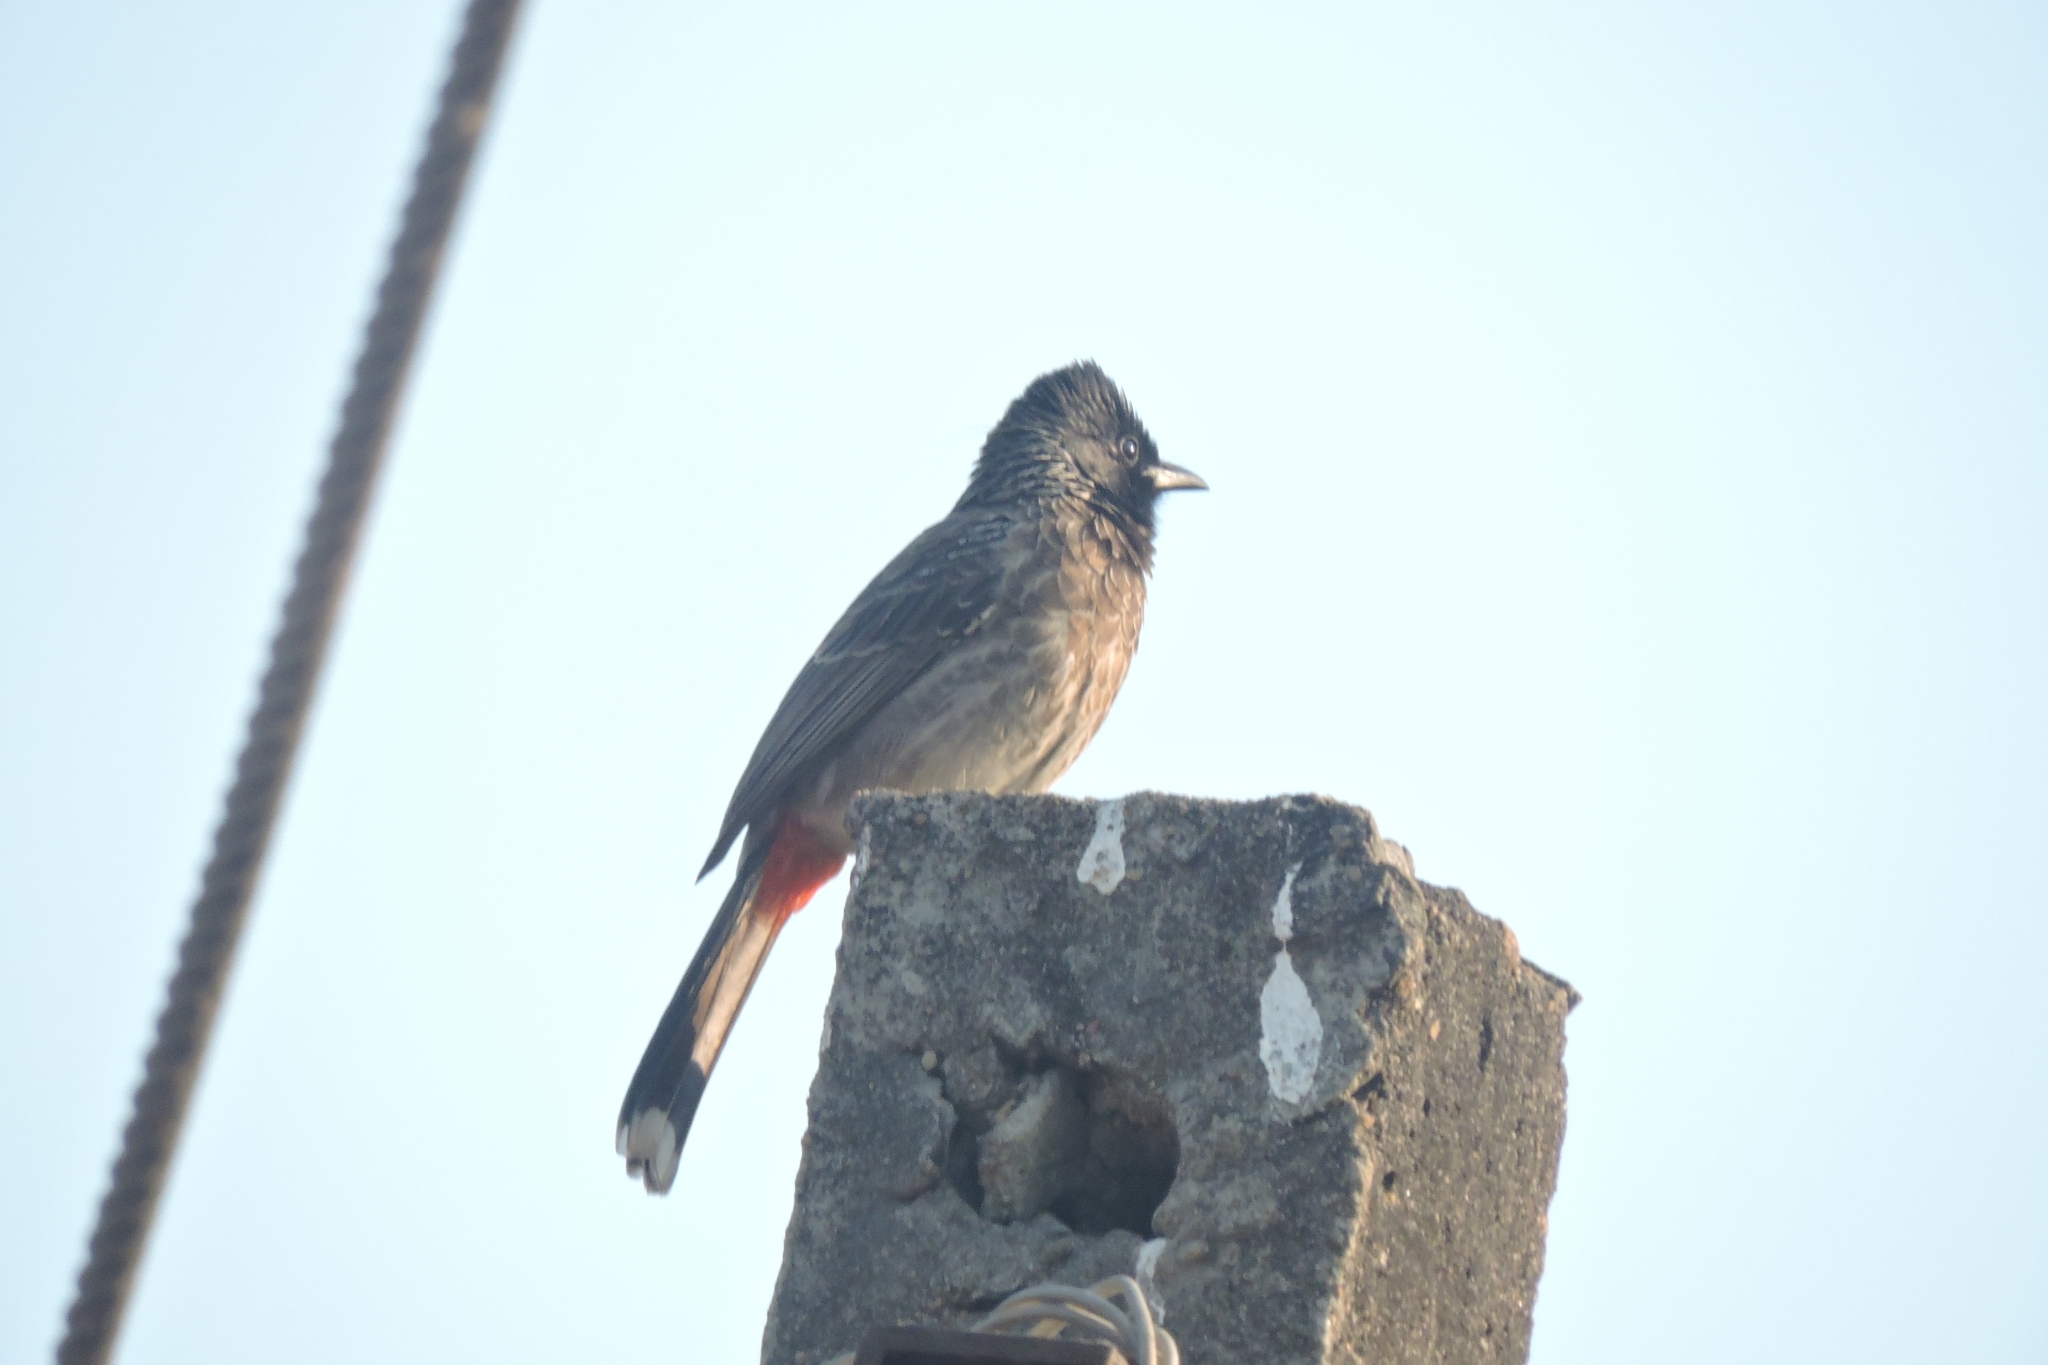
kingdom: Animalia
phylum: Chordata
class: Aves
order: Passeriformes
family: Pycnonotidae
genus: Pycnonotus
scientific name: Pycnonotus cafer
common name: Red-vented bulbul
